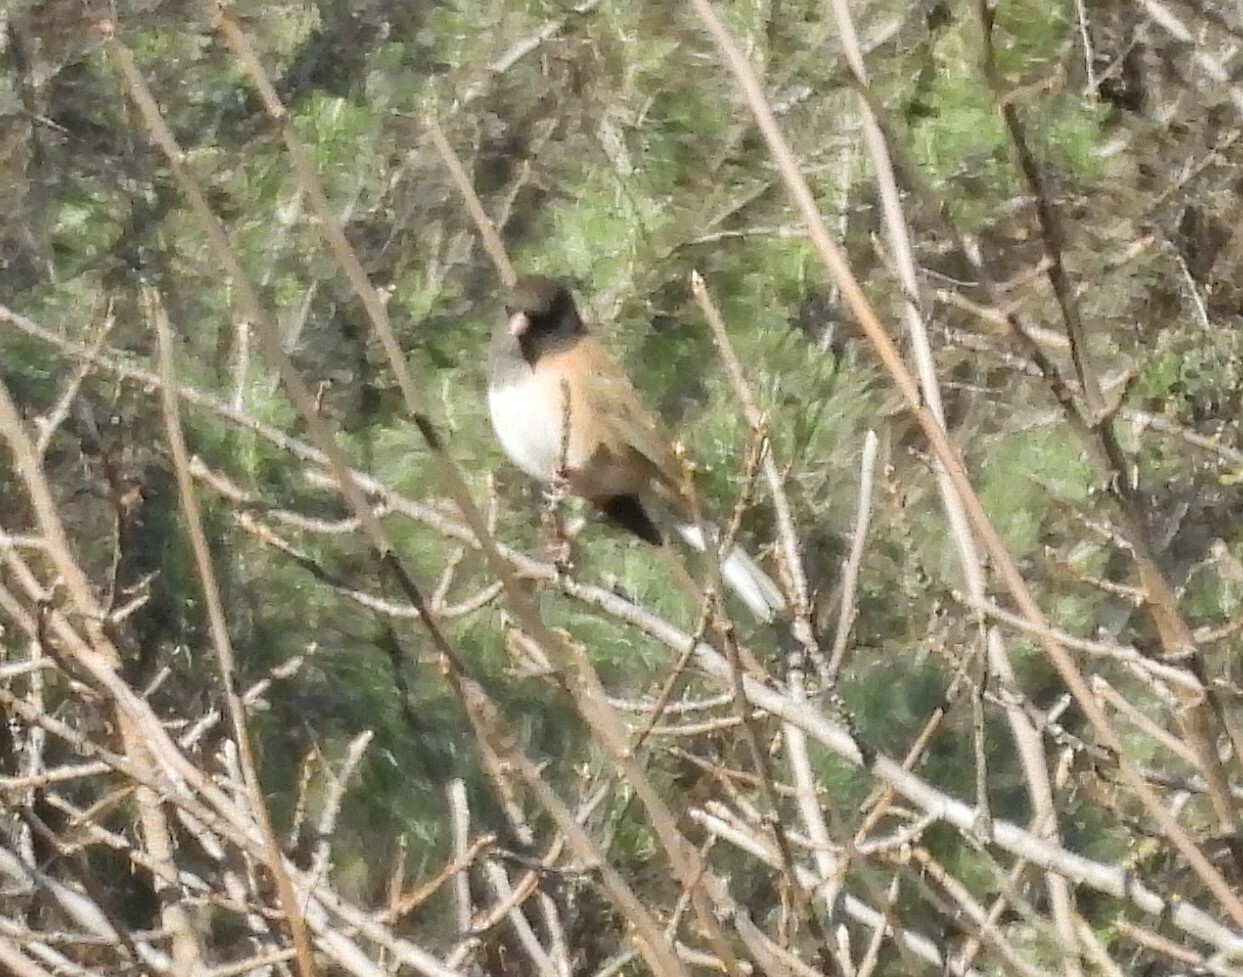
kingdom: Animalia
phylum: Chordata
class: Aves
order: Passeriformes
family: Passerellidae
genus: Junco
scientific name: Junco hyemalis
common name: Dark-eyed junco
